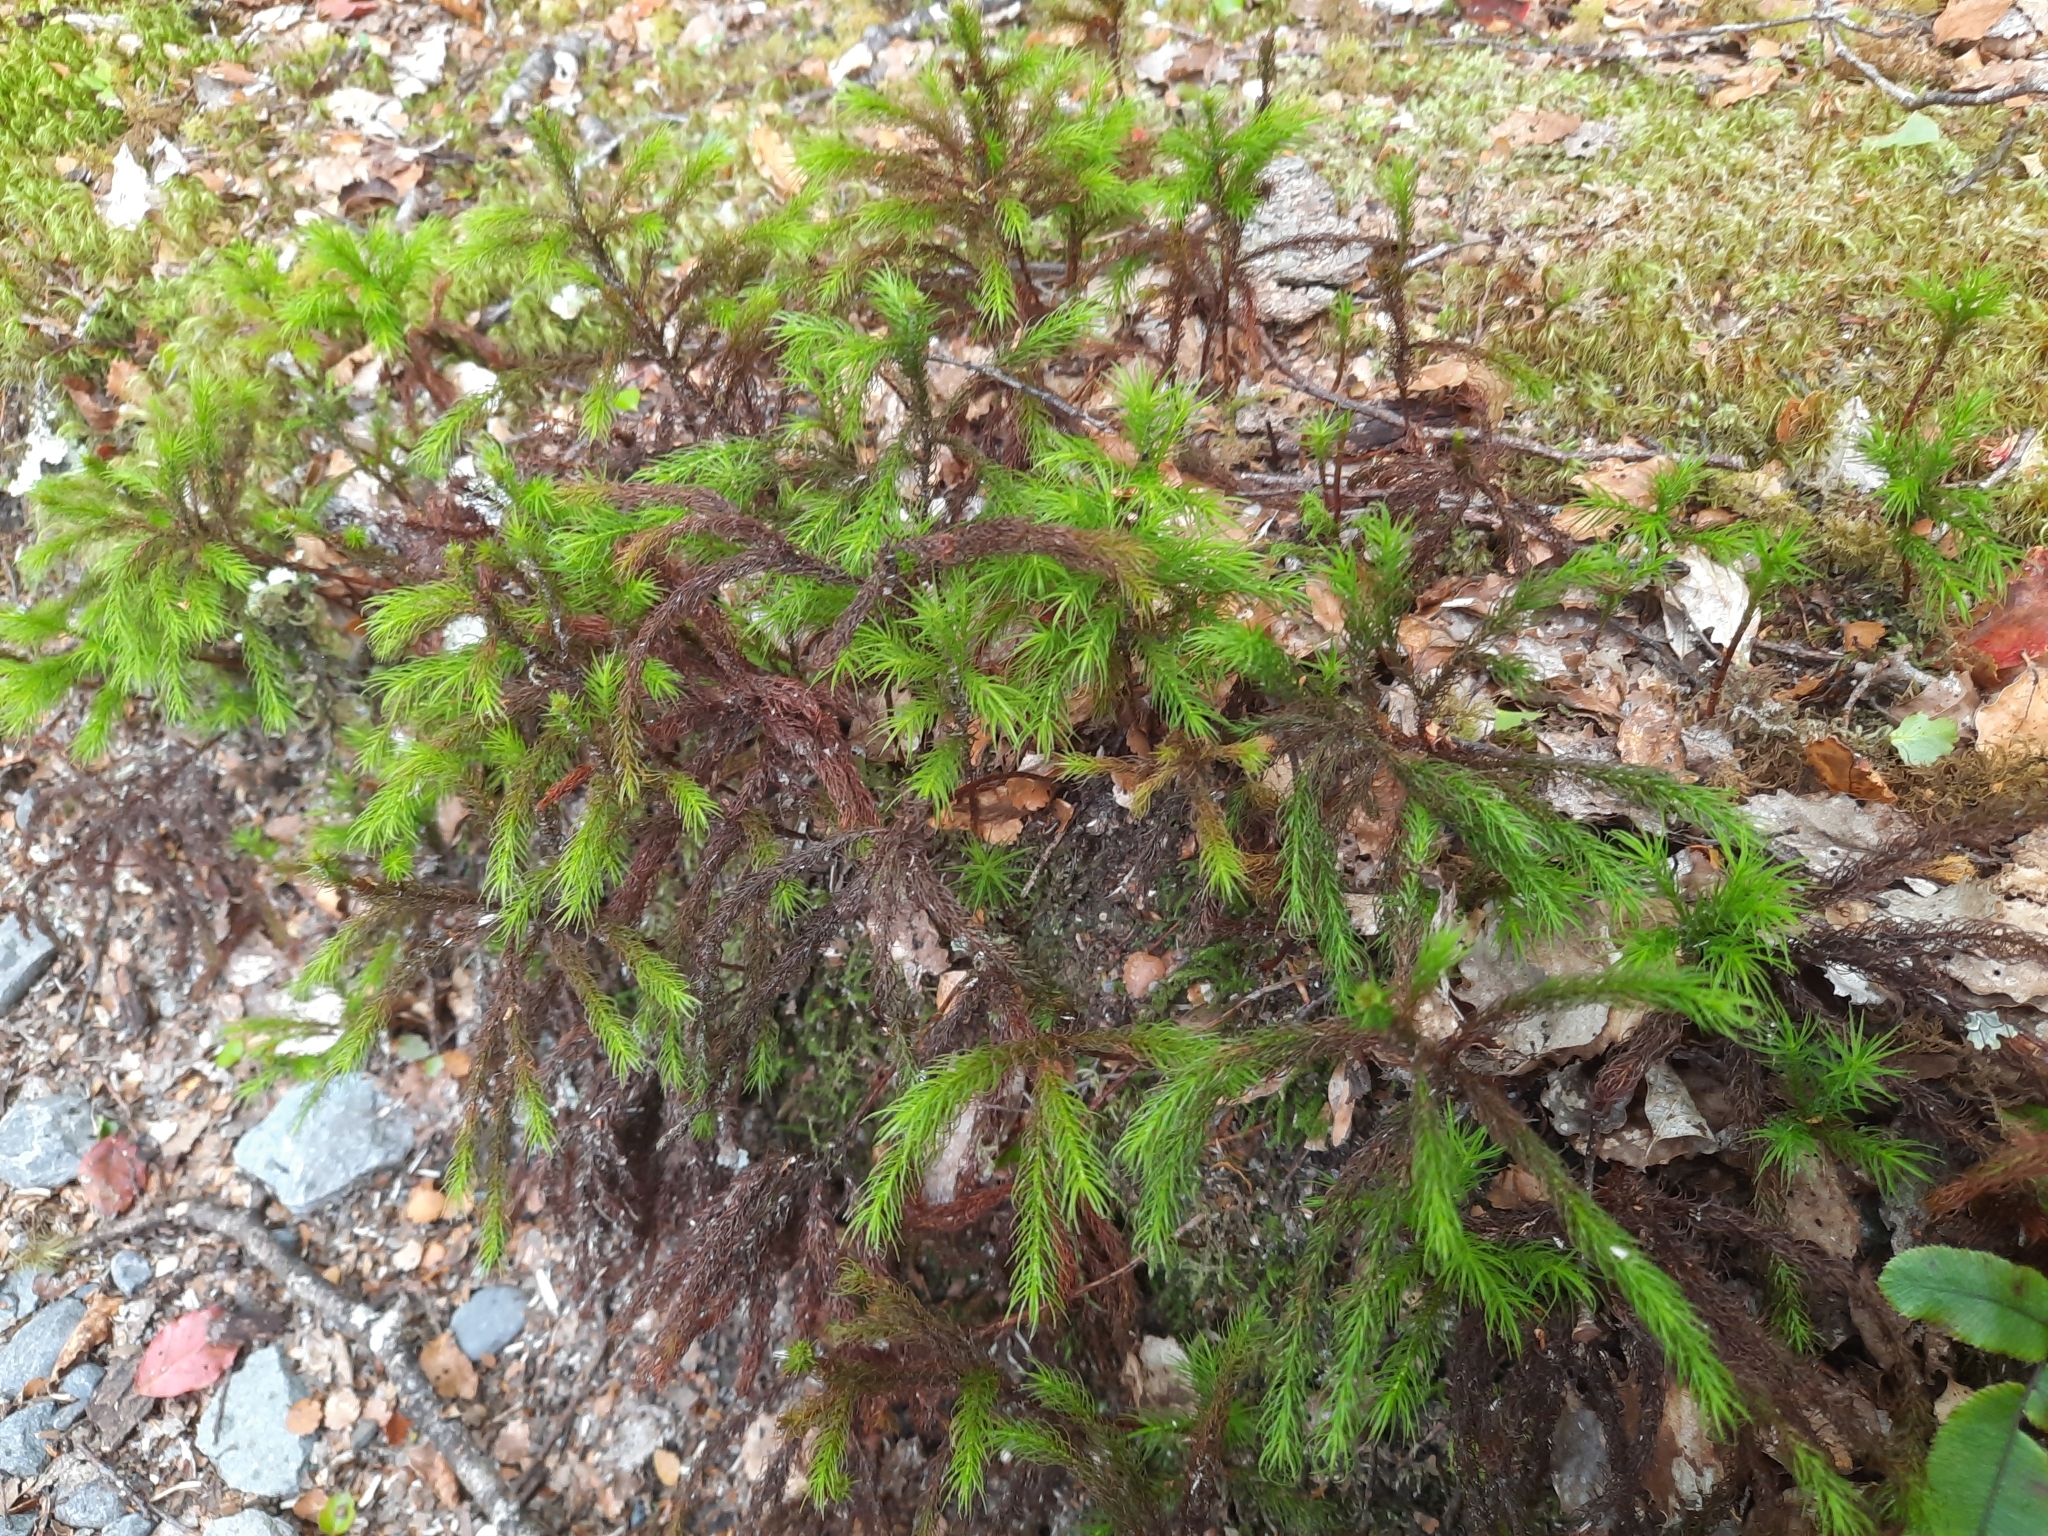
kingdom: Plantae
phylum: Bryophyta
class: Polytrichopsida
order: Polytrichales
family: Polytrichaceae
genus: Dendroligotrichum
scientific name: Dendroligotrichum tongariroense
